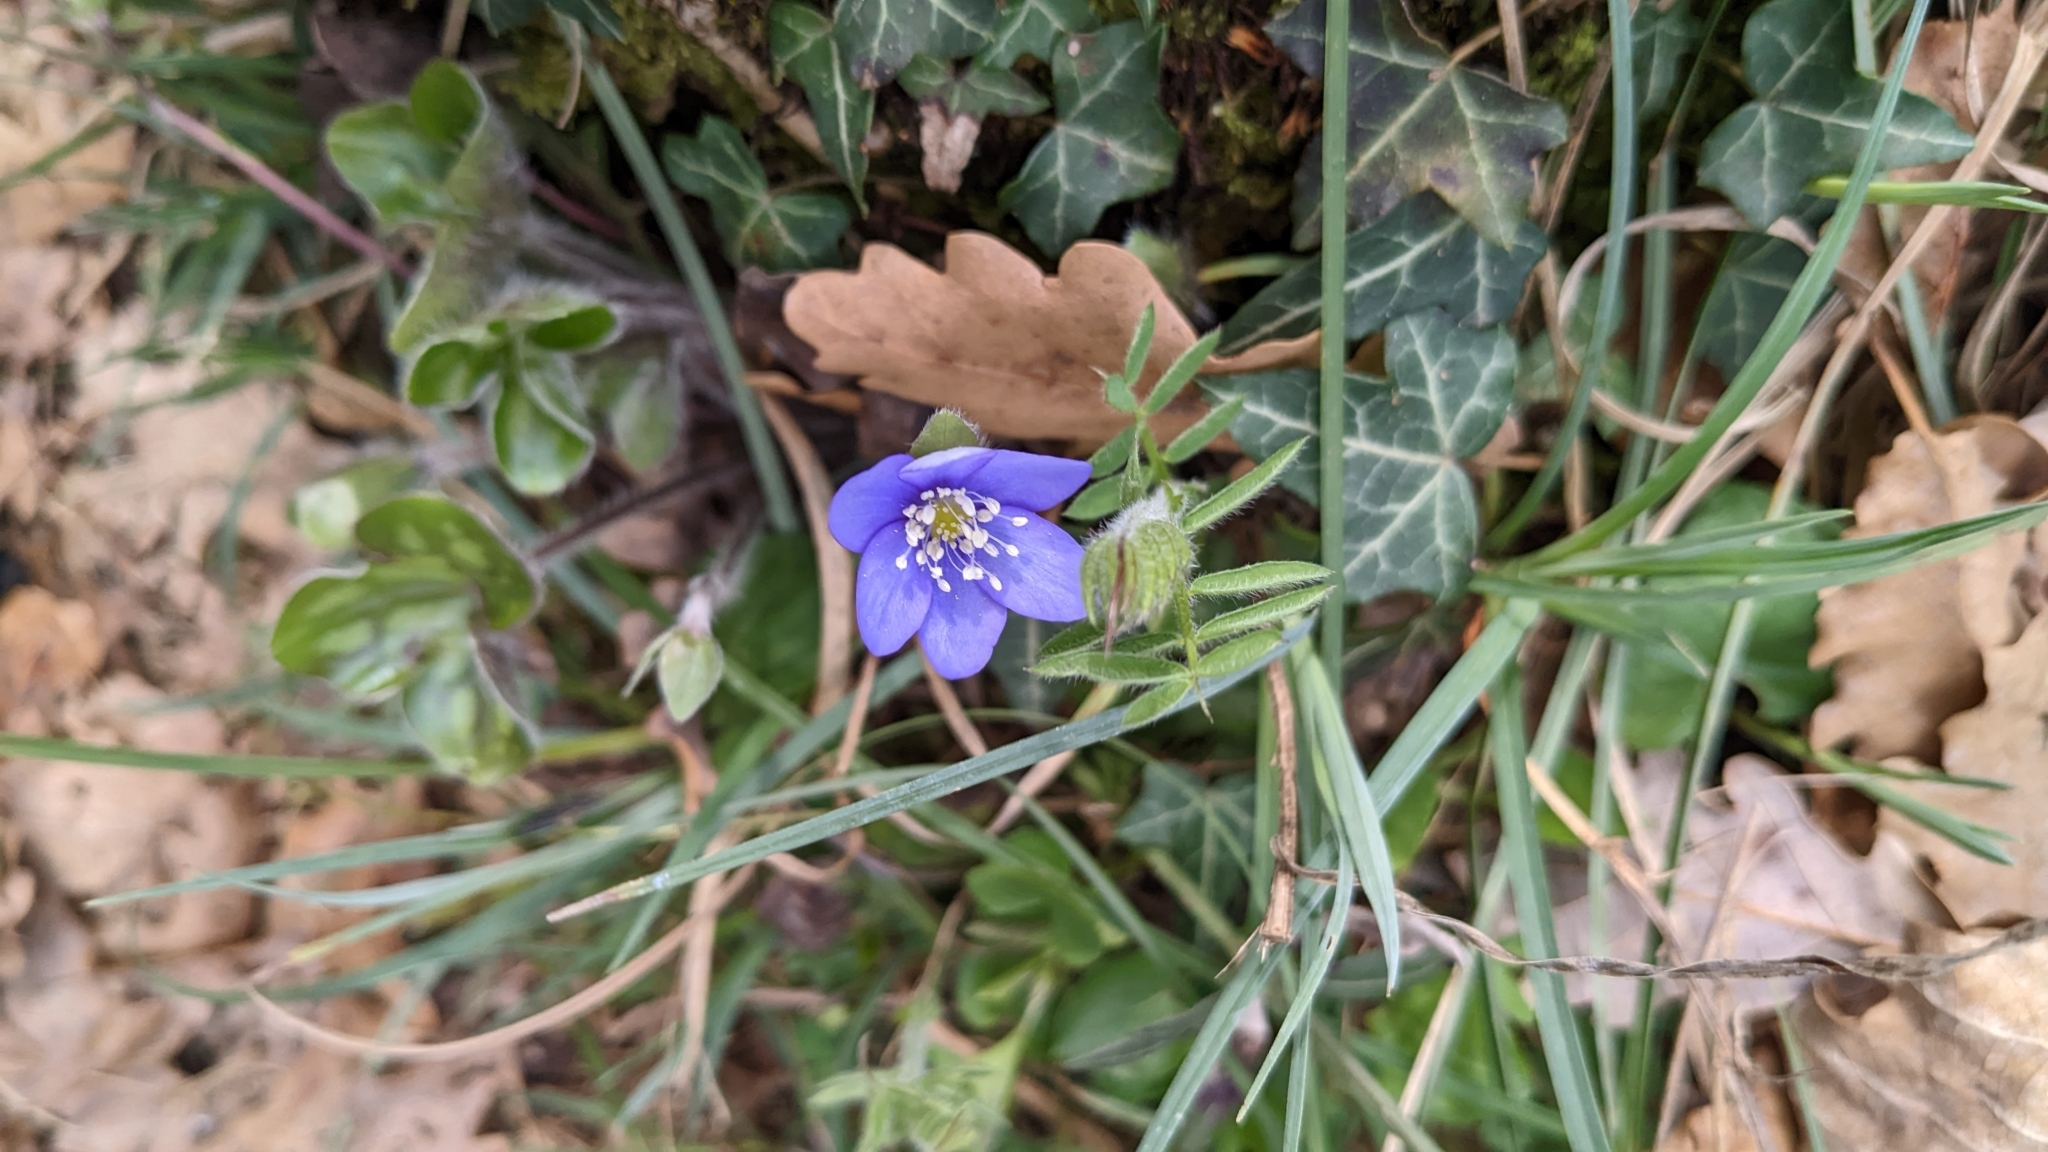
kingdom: Plantae
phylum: Tracheophyta
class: Magnoliopsida
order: Ranunculales
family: Ranunculaceae
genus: Hepatica
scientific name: Hepatica nobilis
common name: Liverleaf
